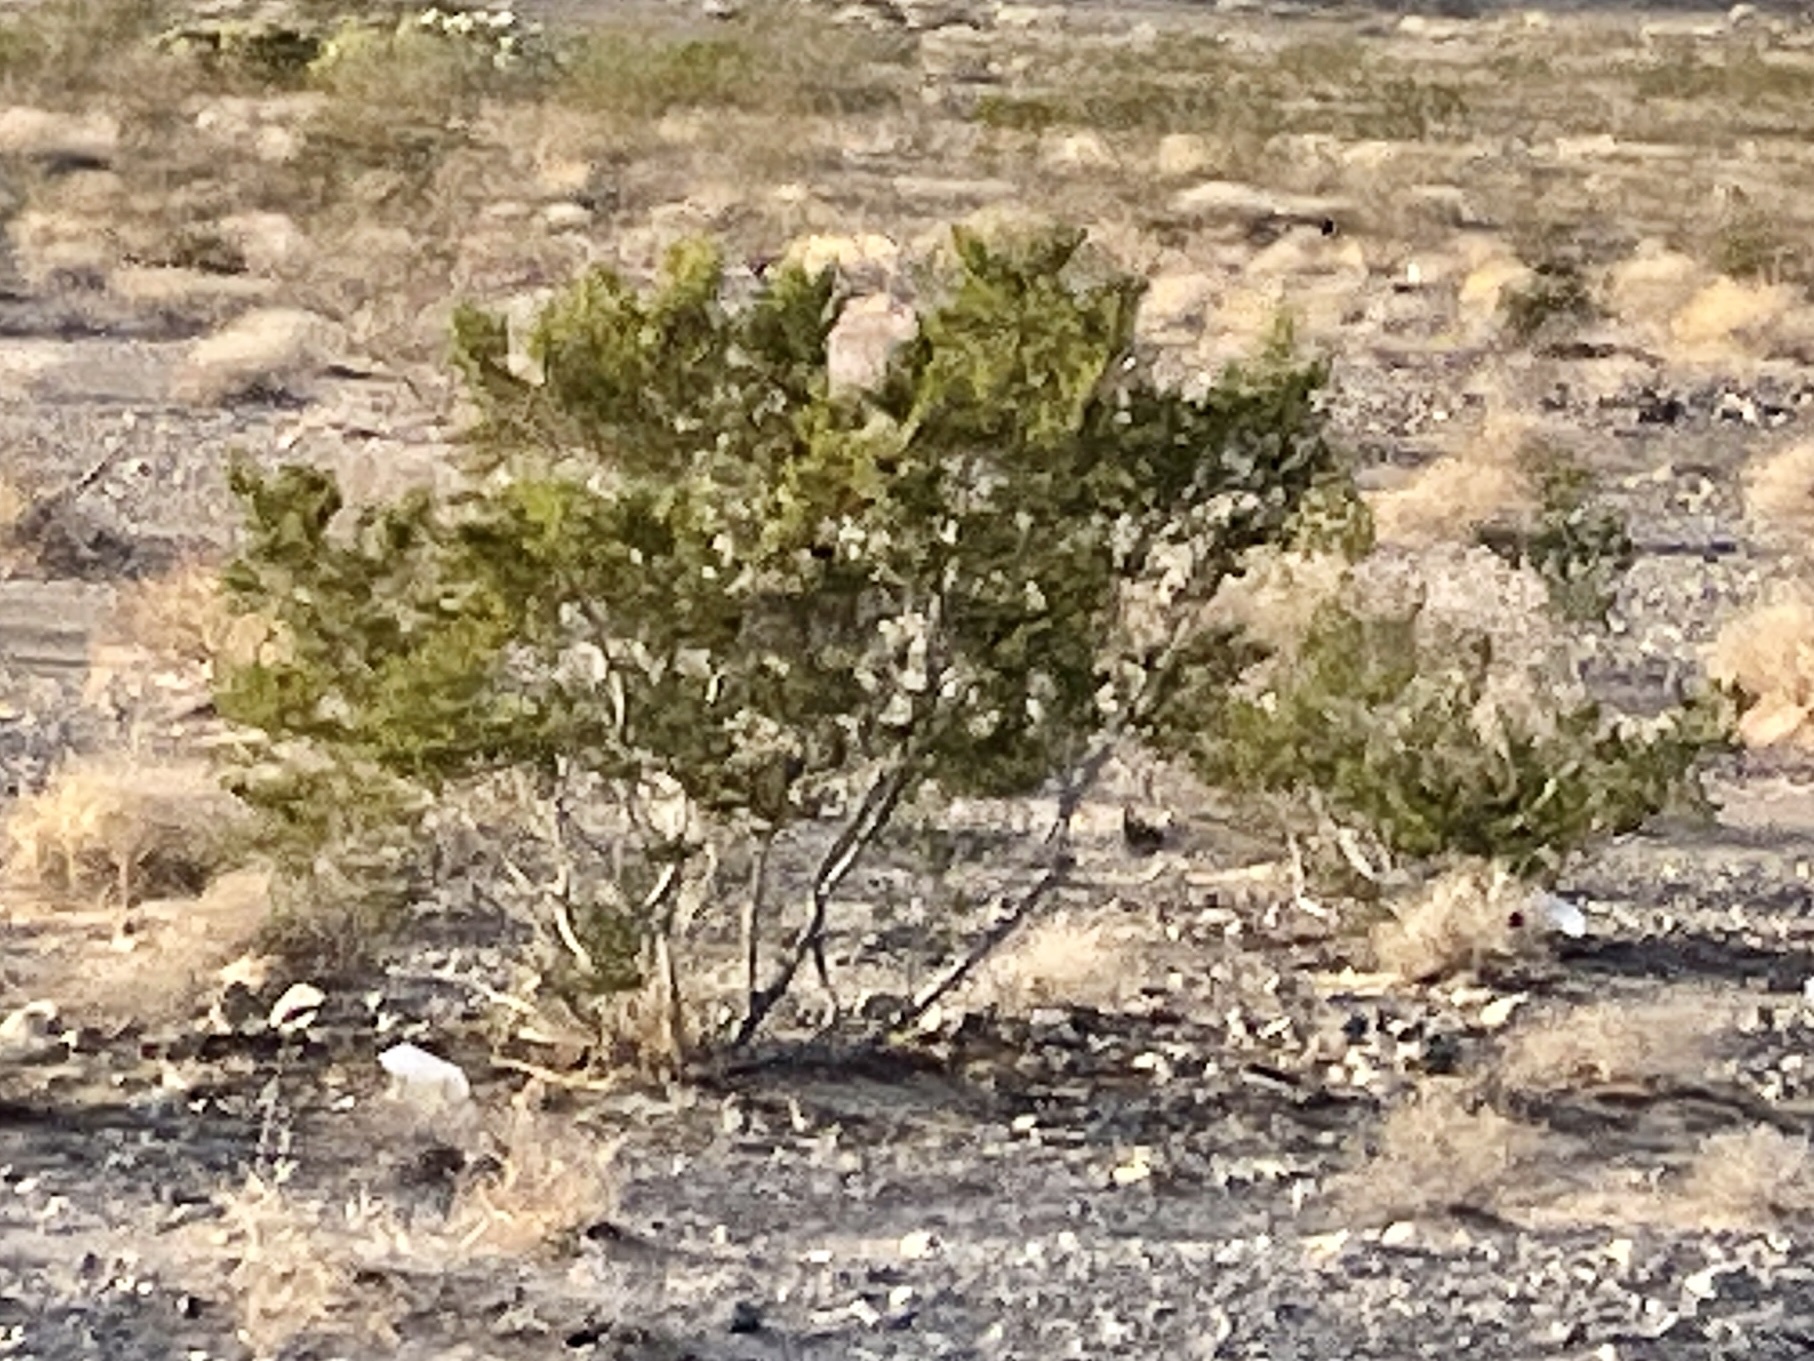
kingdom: Plantae
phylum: Tracheophyta
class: Magnoliopsida
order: Zygophyllales
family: Zygophyllaceae
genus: Larrea
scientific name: Larrea tridentata
